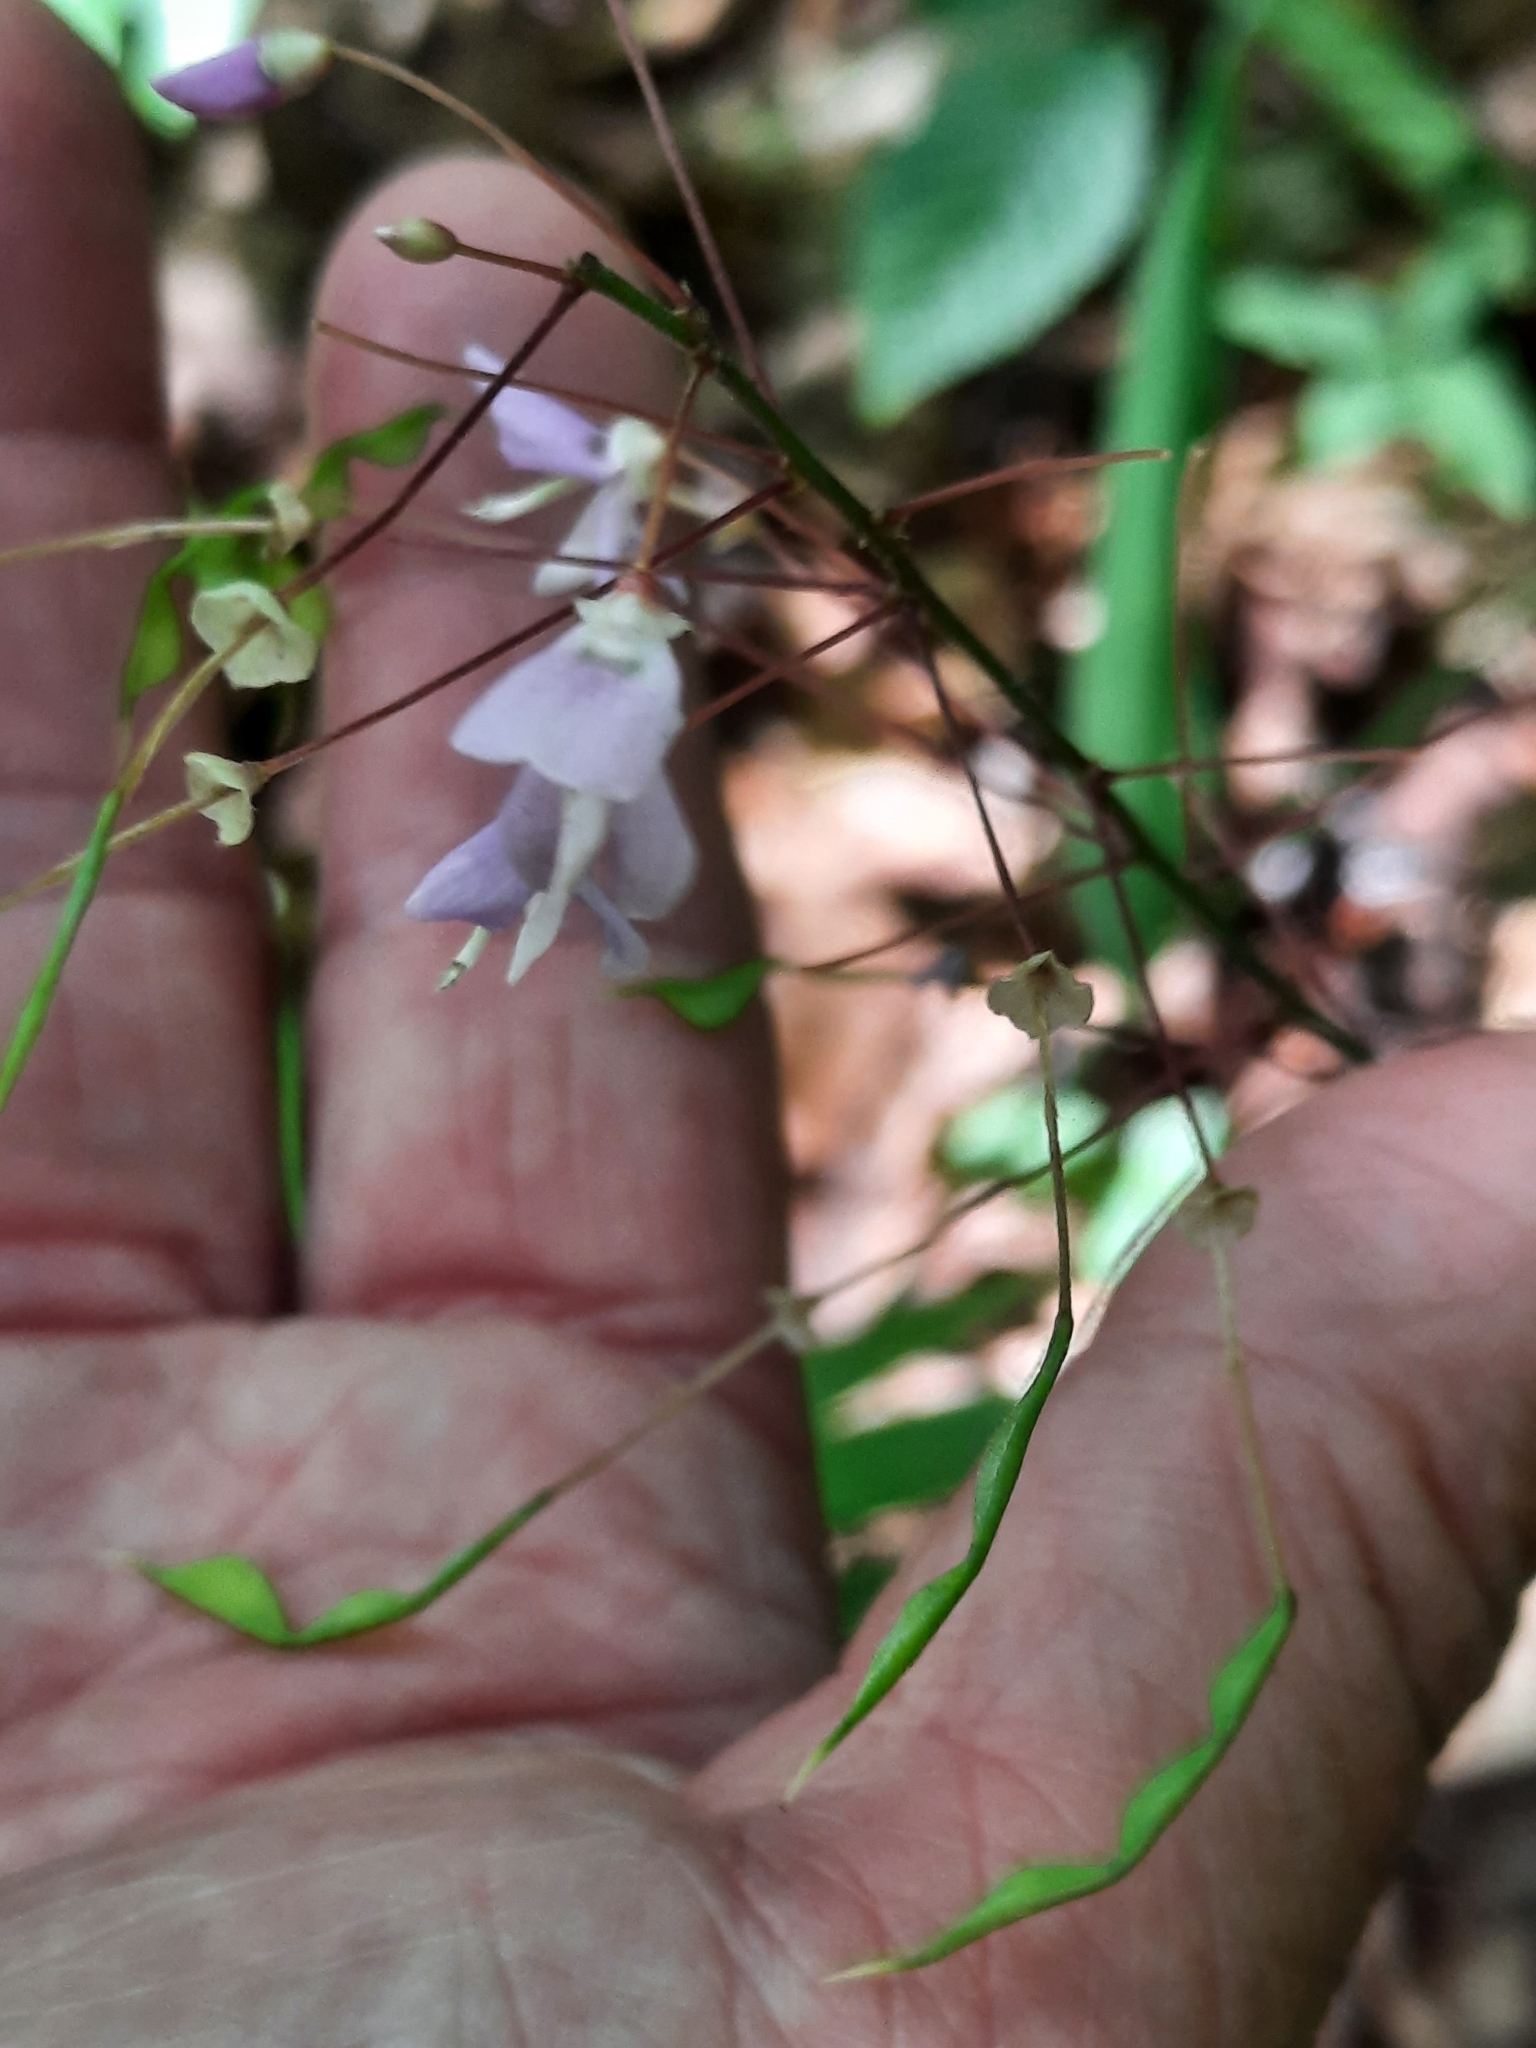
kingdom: Plantae
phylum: Tracheophyta
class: Magnoliopsida
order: Fabales
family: Fabaceae
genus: Hylodesmum
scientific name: Hylodesmum nudiflorum
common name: Bare-stemmed tick-trefoil
